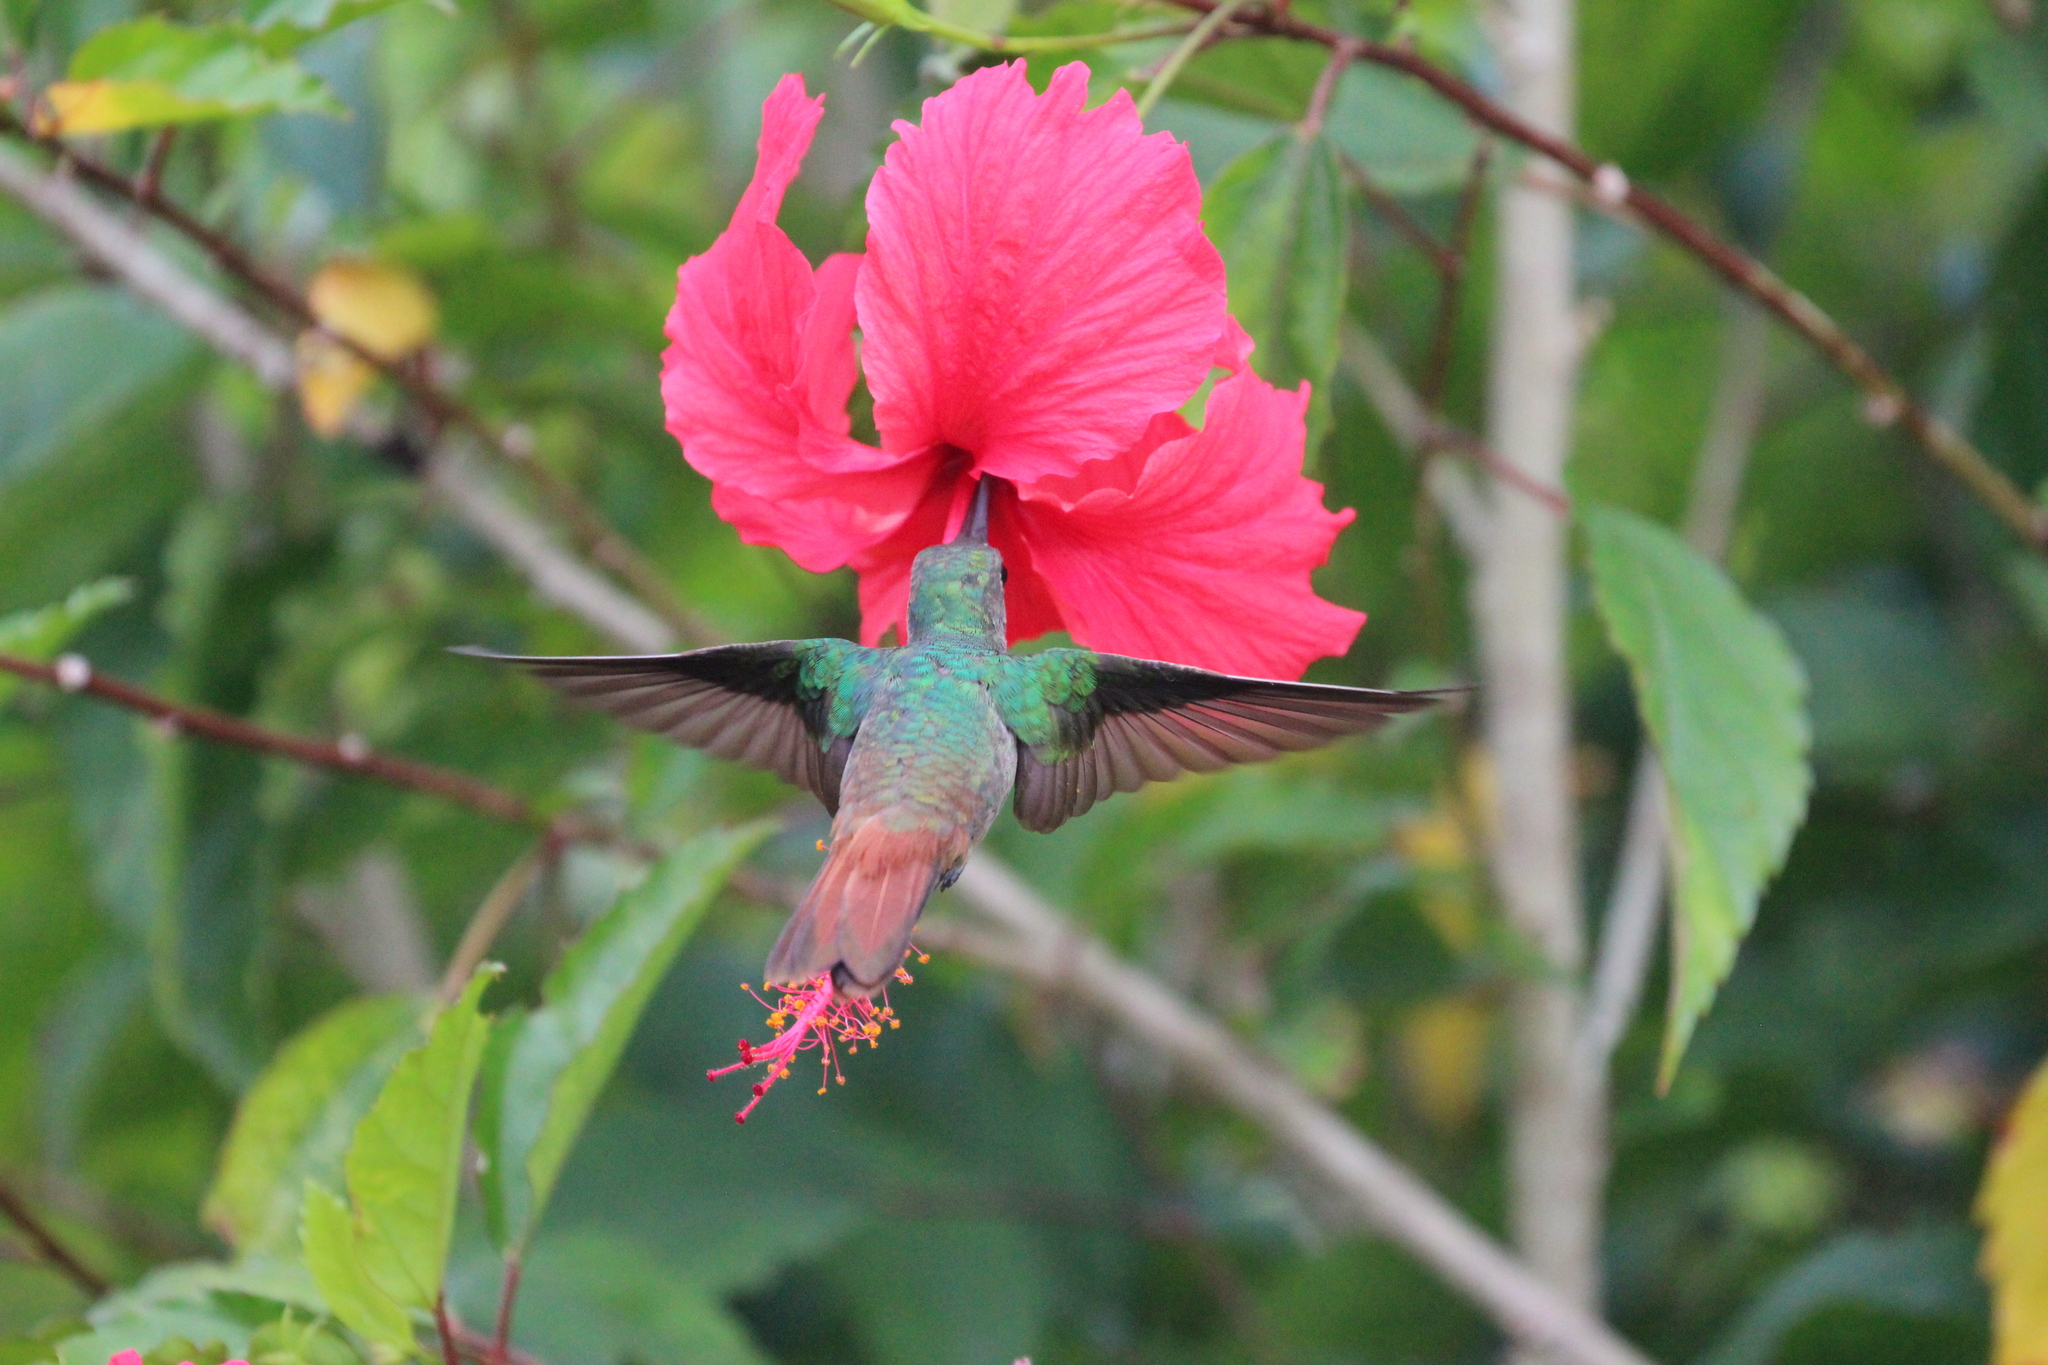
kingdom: Animalia
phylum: Chordata
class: Aves
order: Apodiformes
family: Trochilidae
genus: Amazilia
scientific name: Amazilia tzacatl
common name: Rufous-tailed hummingbird
